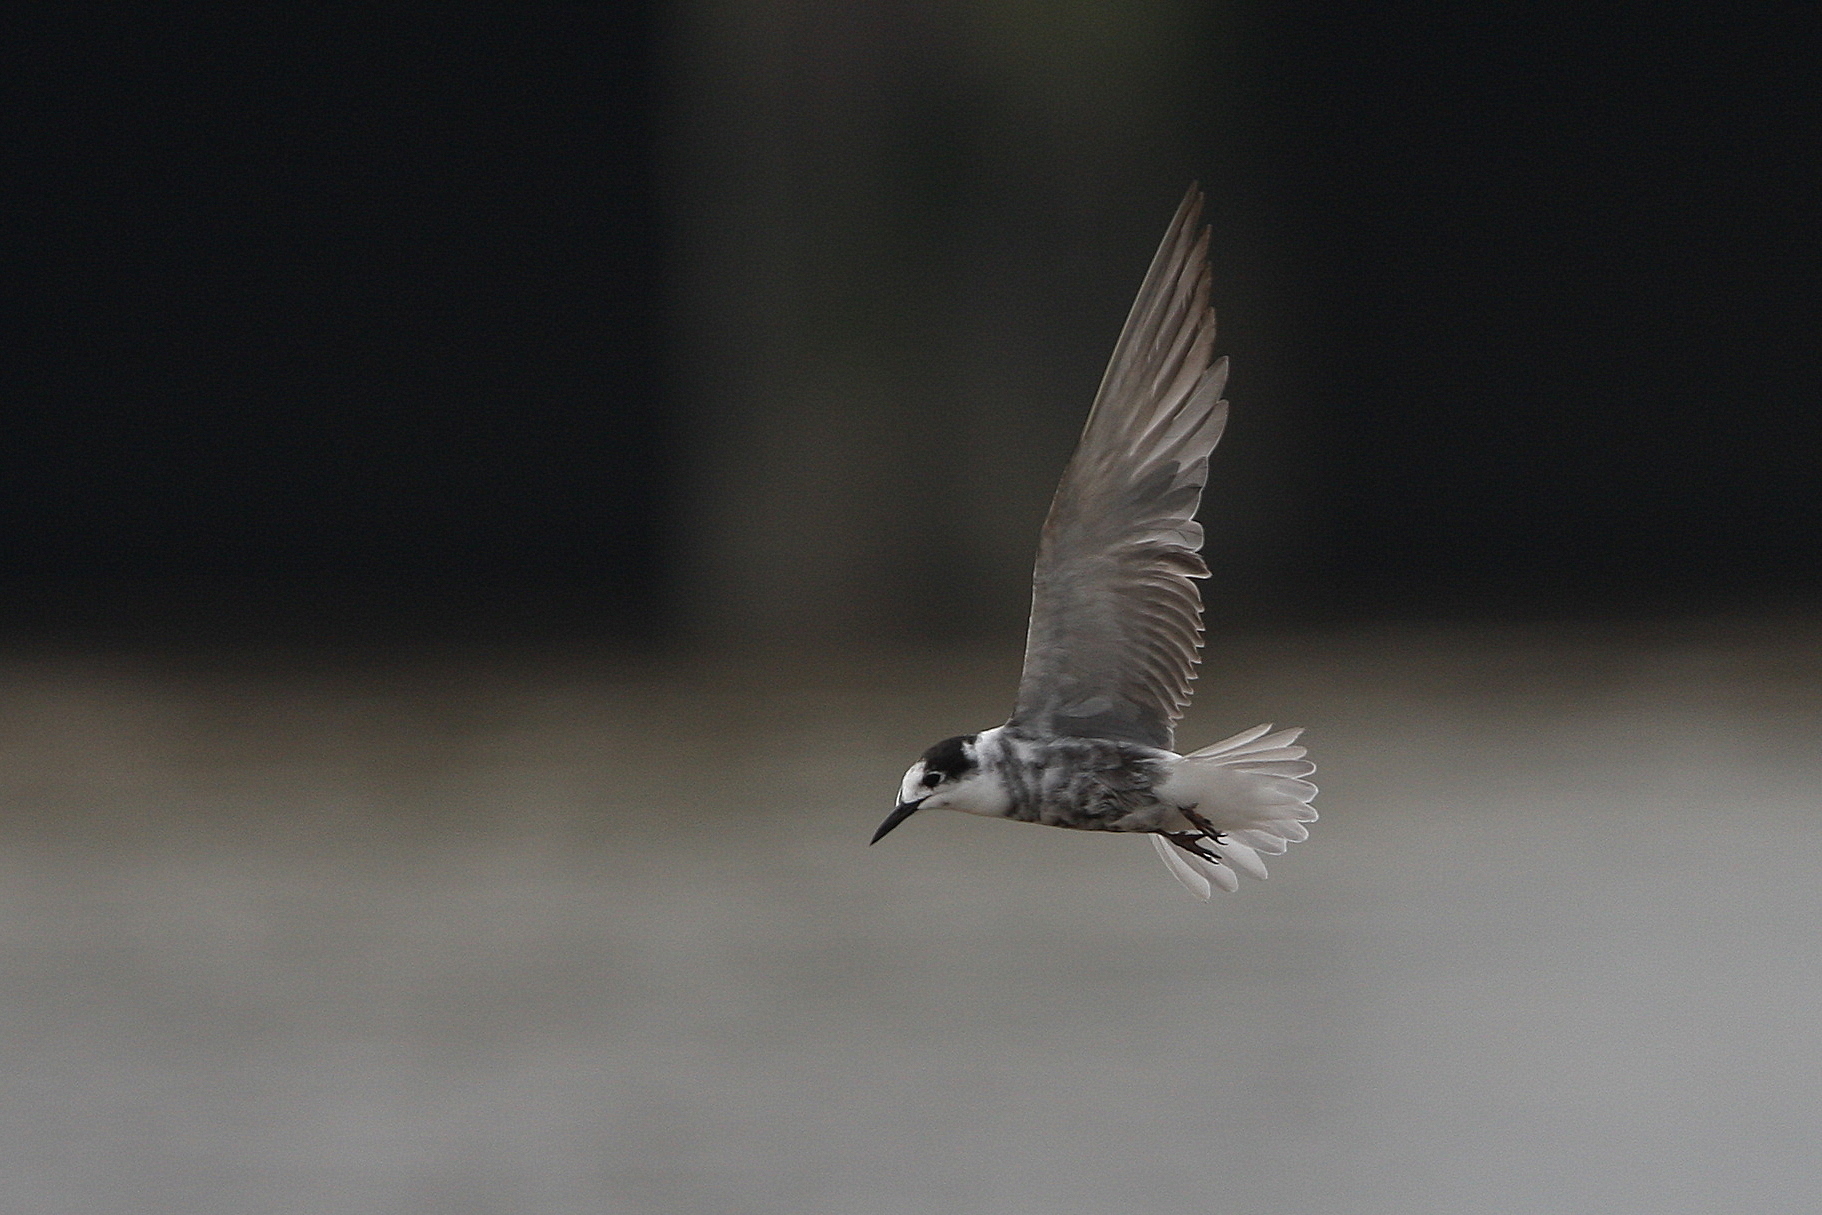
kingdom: Animalia
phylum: Chordata
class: Aves
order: Charadriiformes
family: Laridae
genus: Chlidonias
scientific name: Chlidonias niger
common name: Black tern
